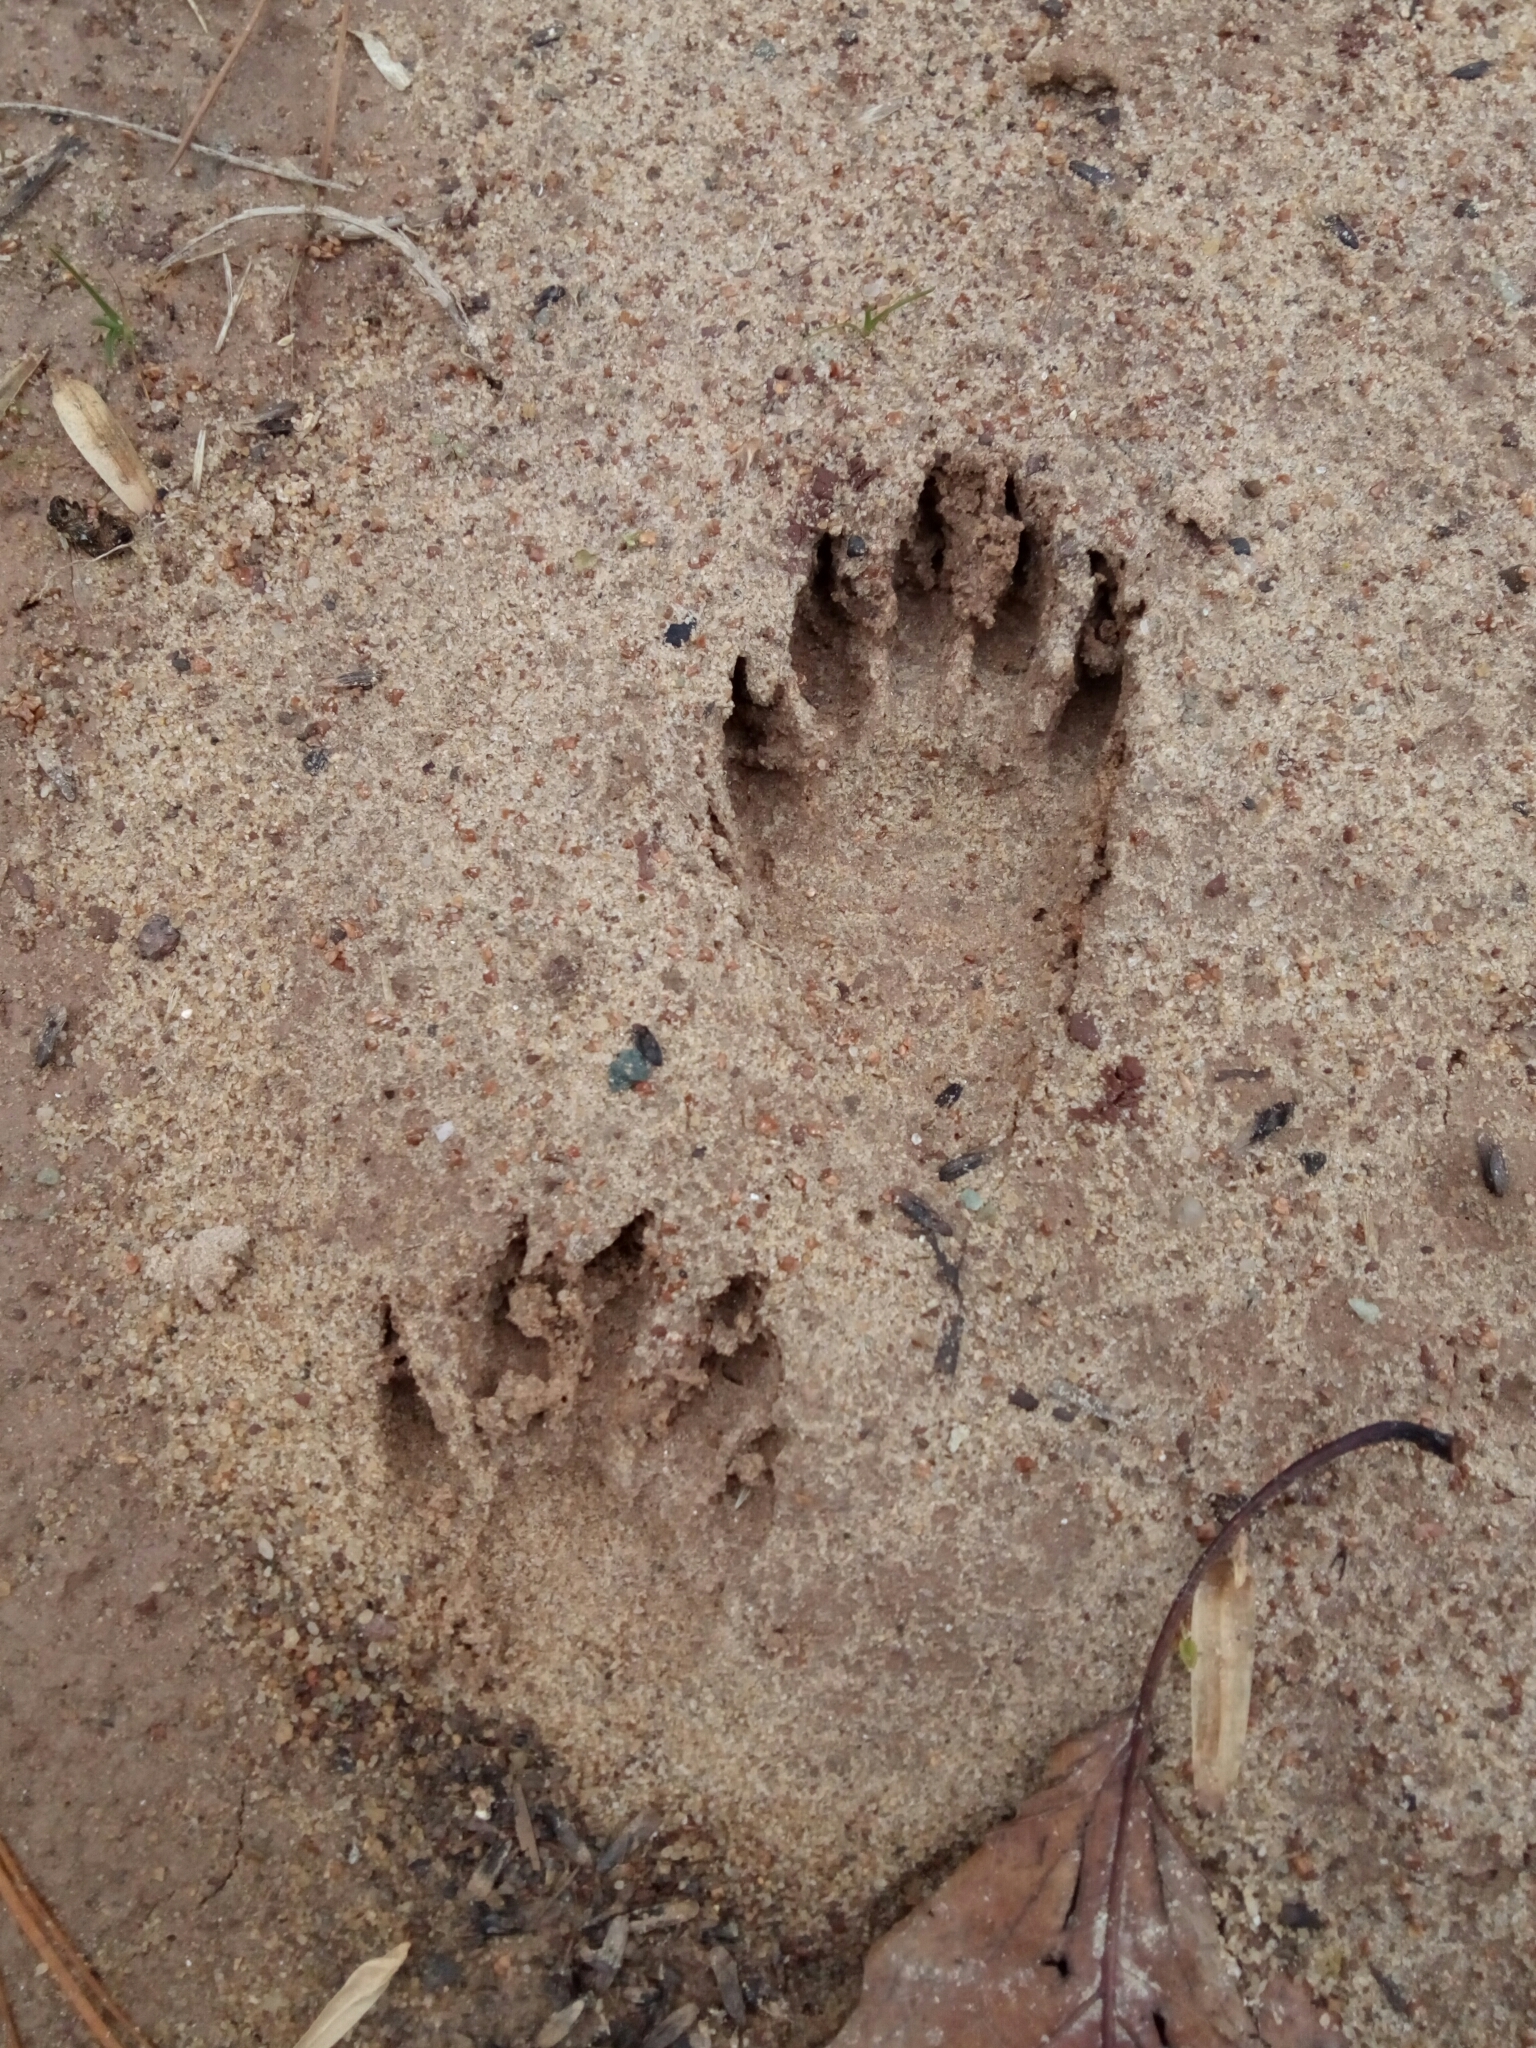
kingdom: Animalia
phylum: Chordata
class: Mammalia
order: Carnivora
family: Procyonidae
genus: Procyon
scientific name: Procyon lotor
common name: Raccoon
